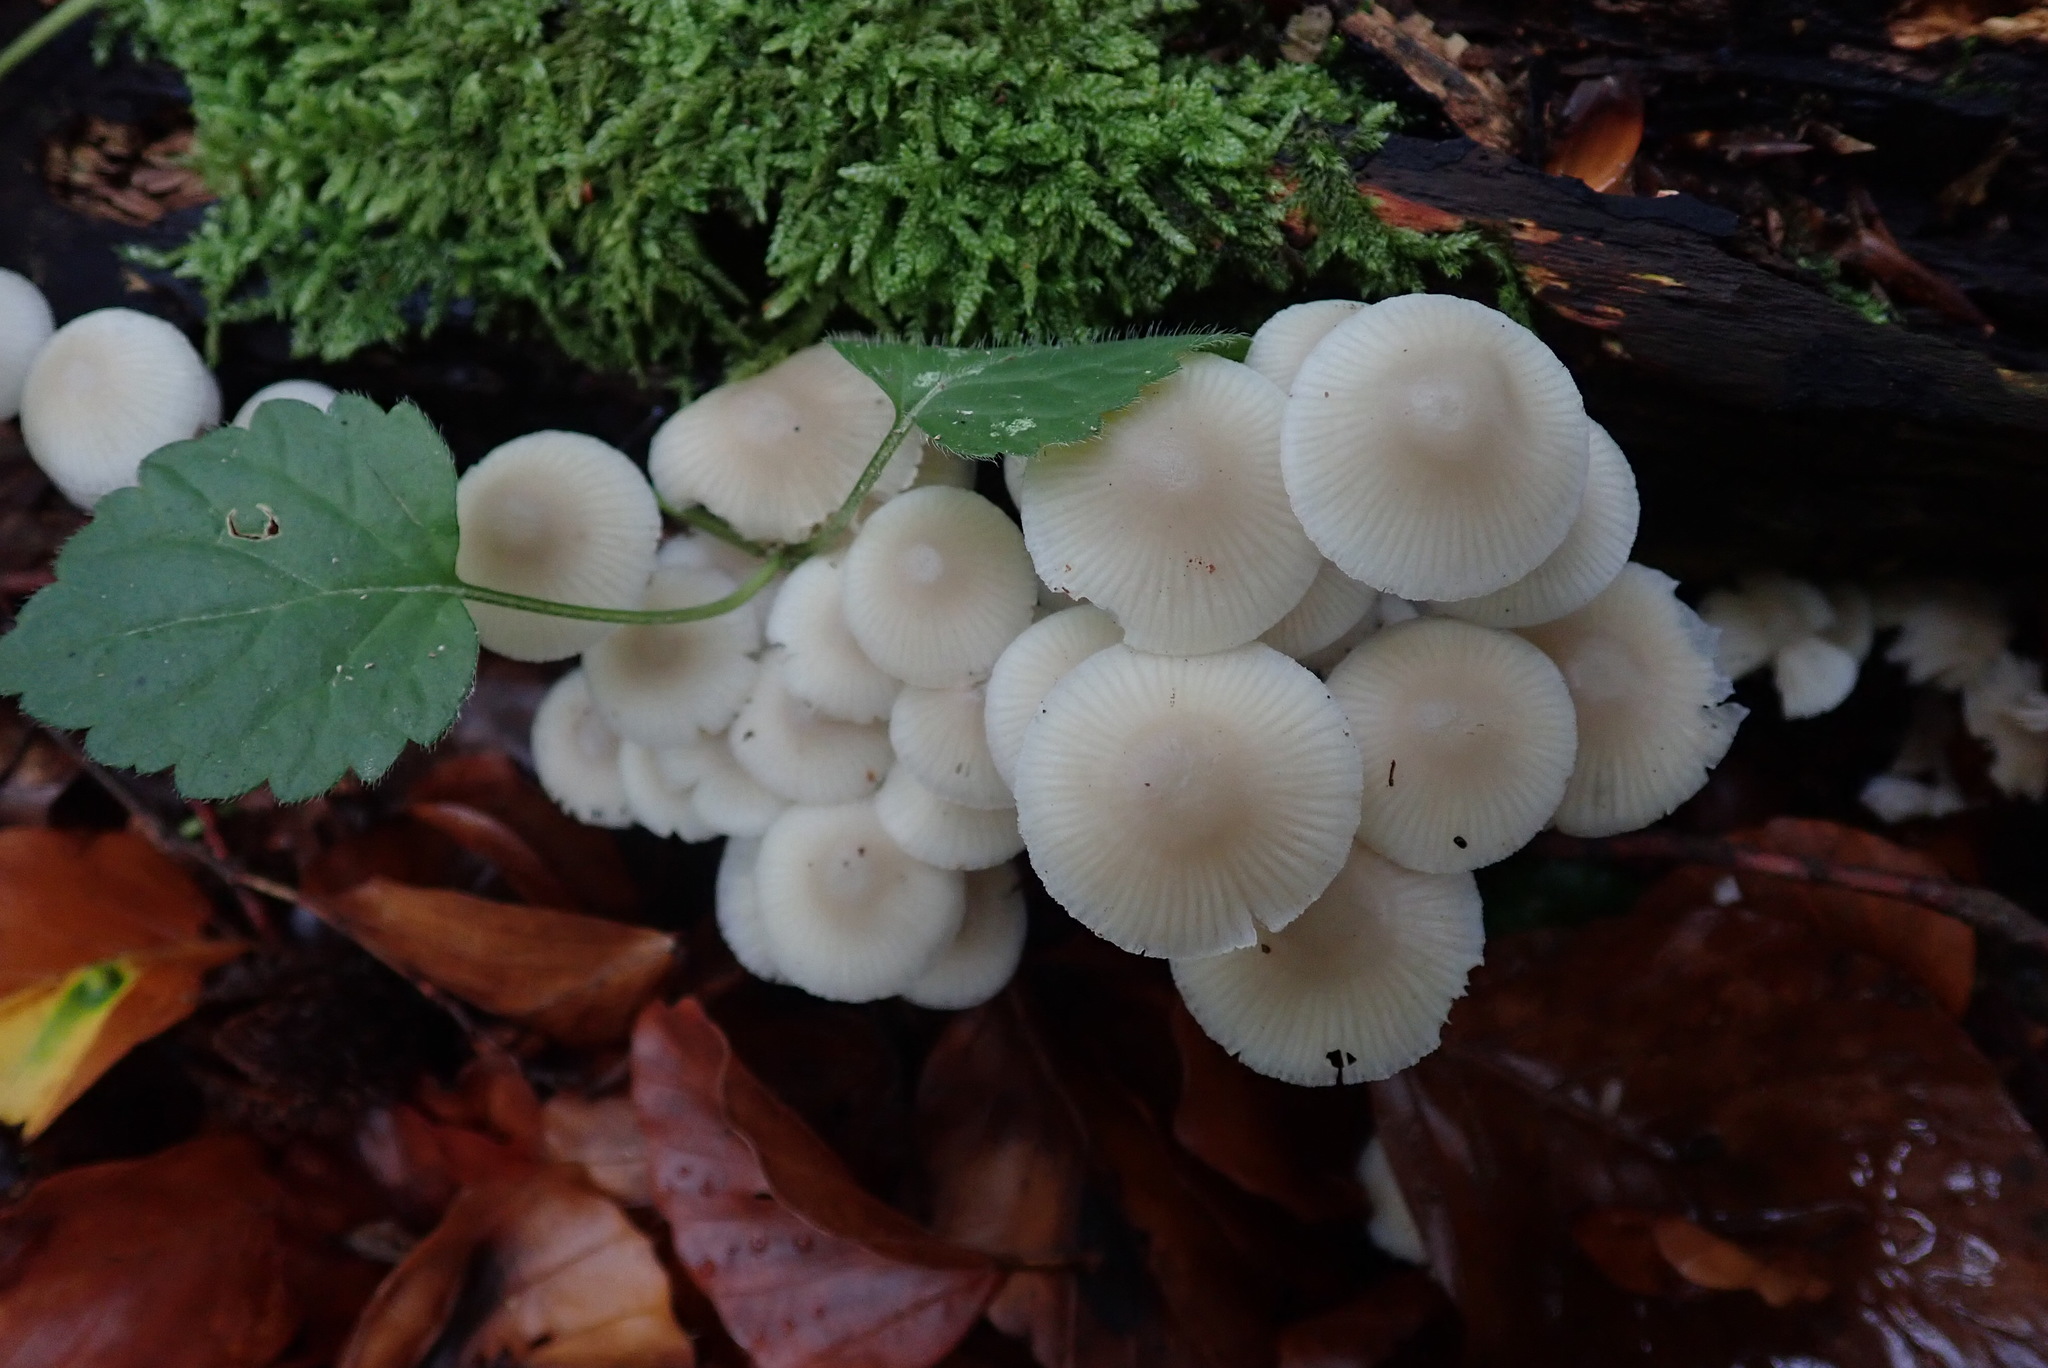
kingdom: Fungi
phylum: Basidiomycota
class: Agaricomycetes
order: Agaricales
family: Mycenaceae
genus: Mycena
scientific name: Mycena galericulata
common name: Bonnet mycena
